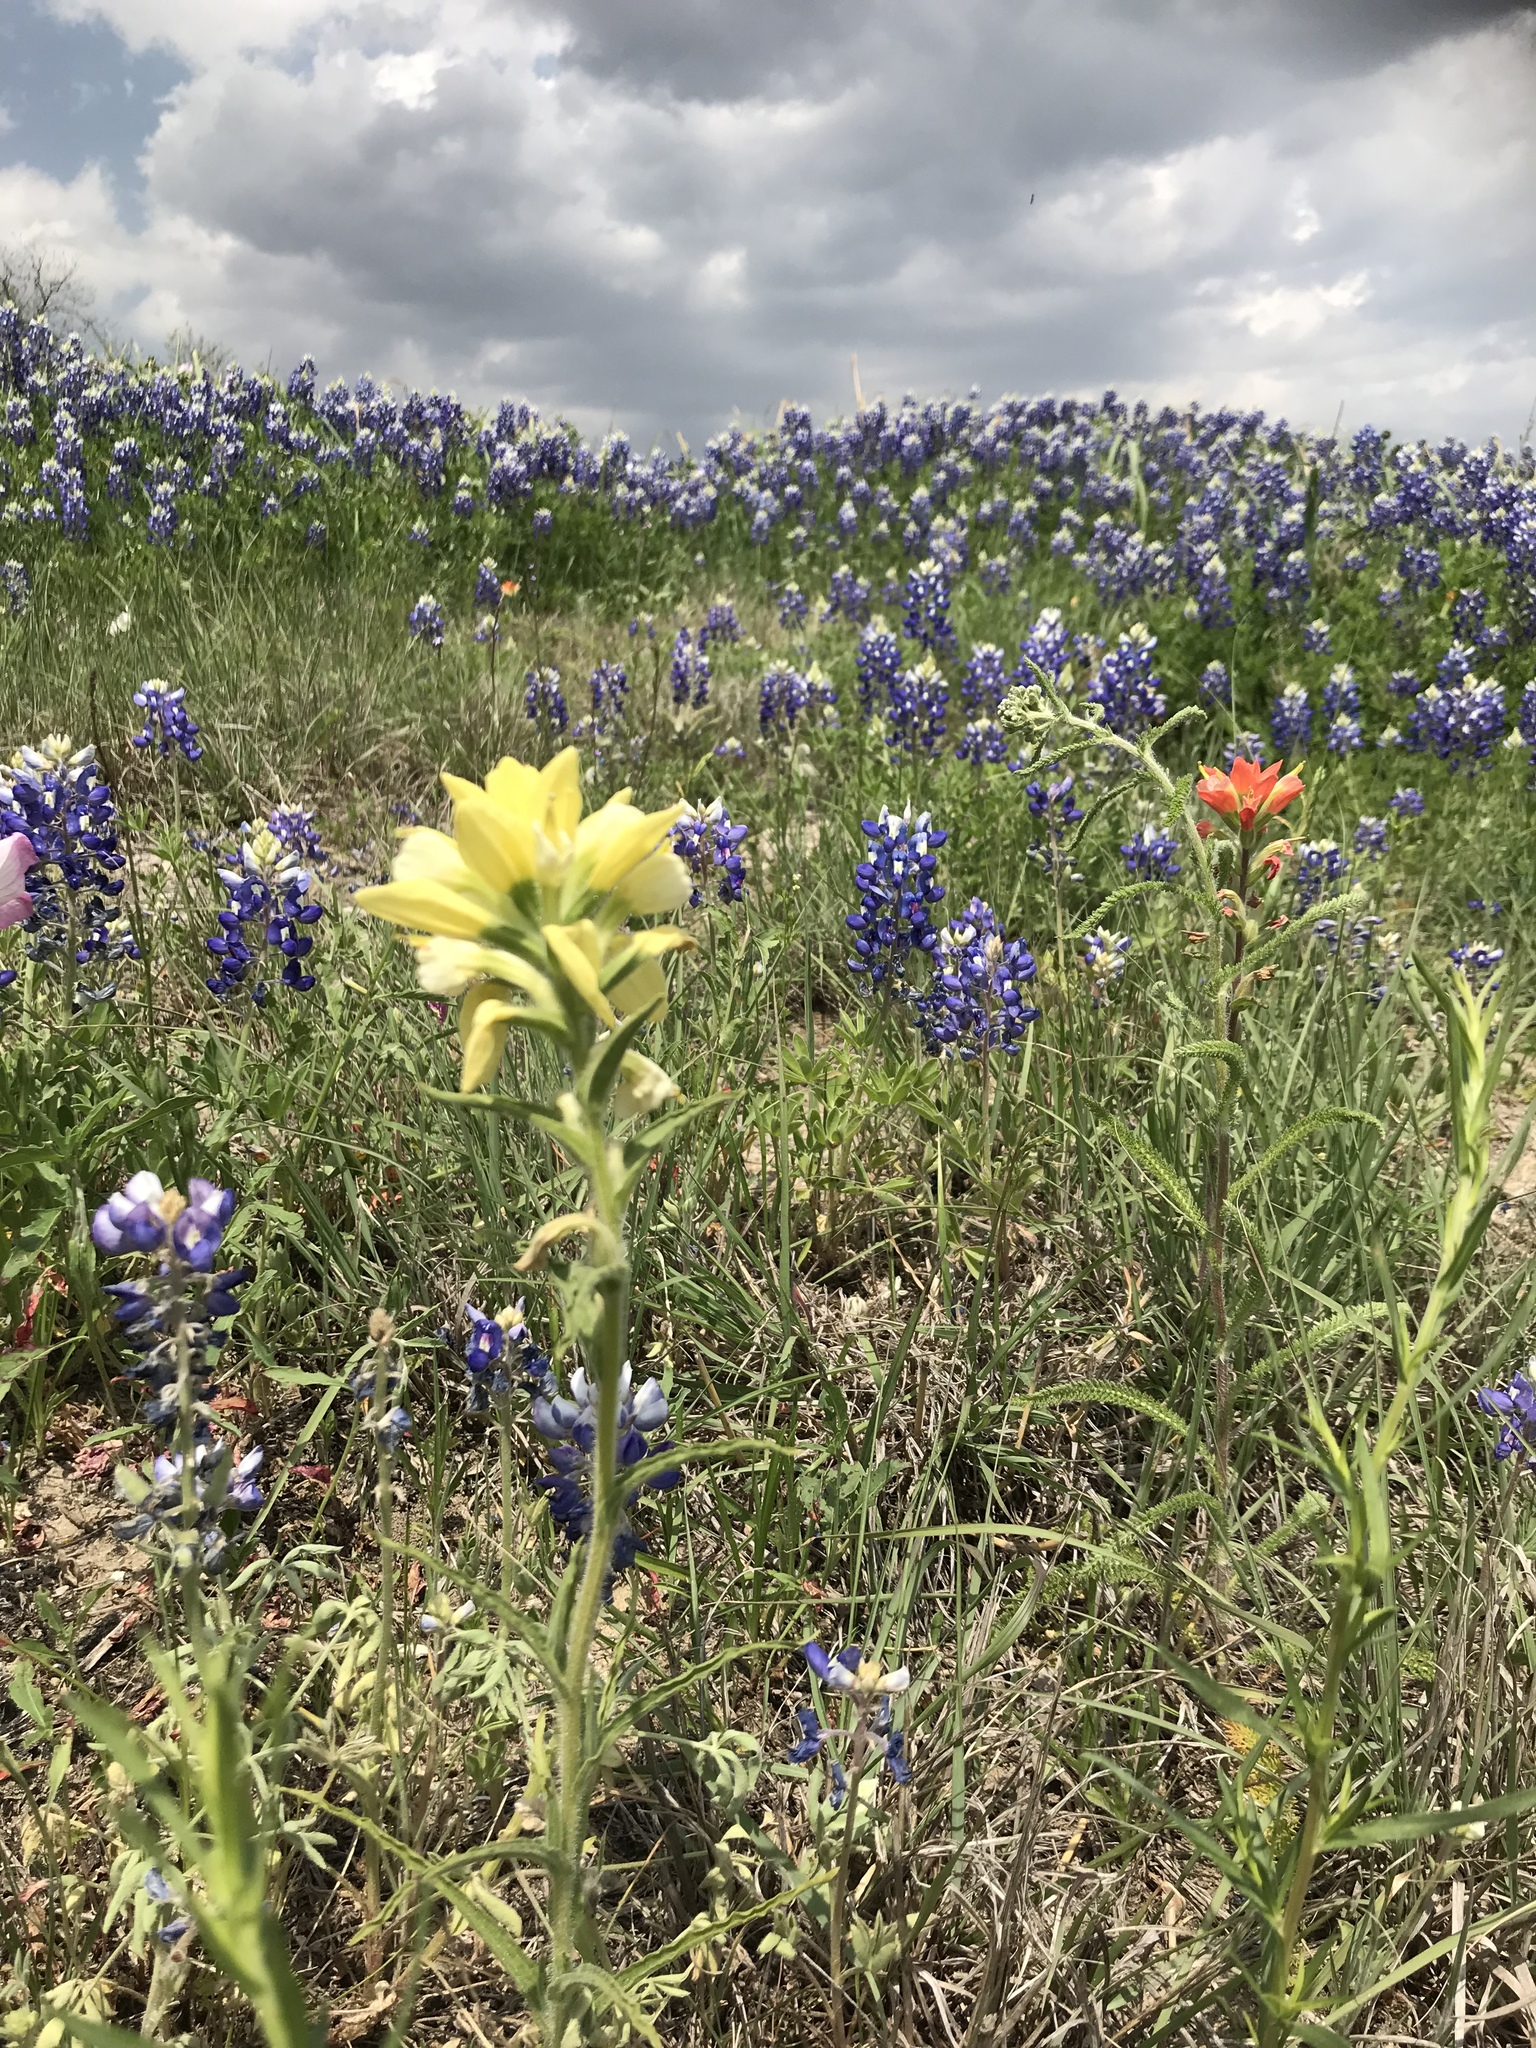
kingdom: Plantae
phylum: Tracheophyta
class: Magnoliopsida
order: Lamiales
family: Orobanchaceae
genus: Castilleja
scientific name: Castilleja indivisa
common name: Texas paintbrush
